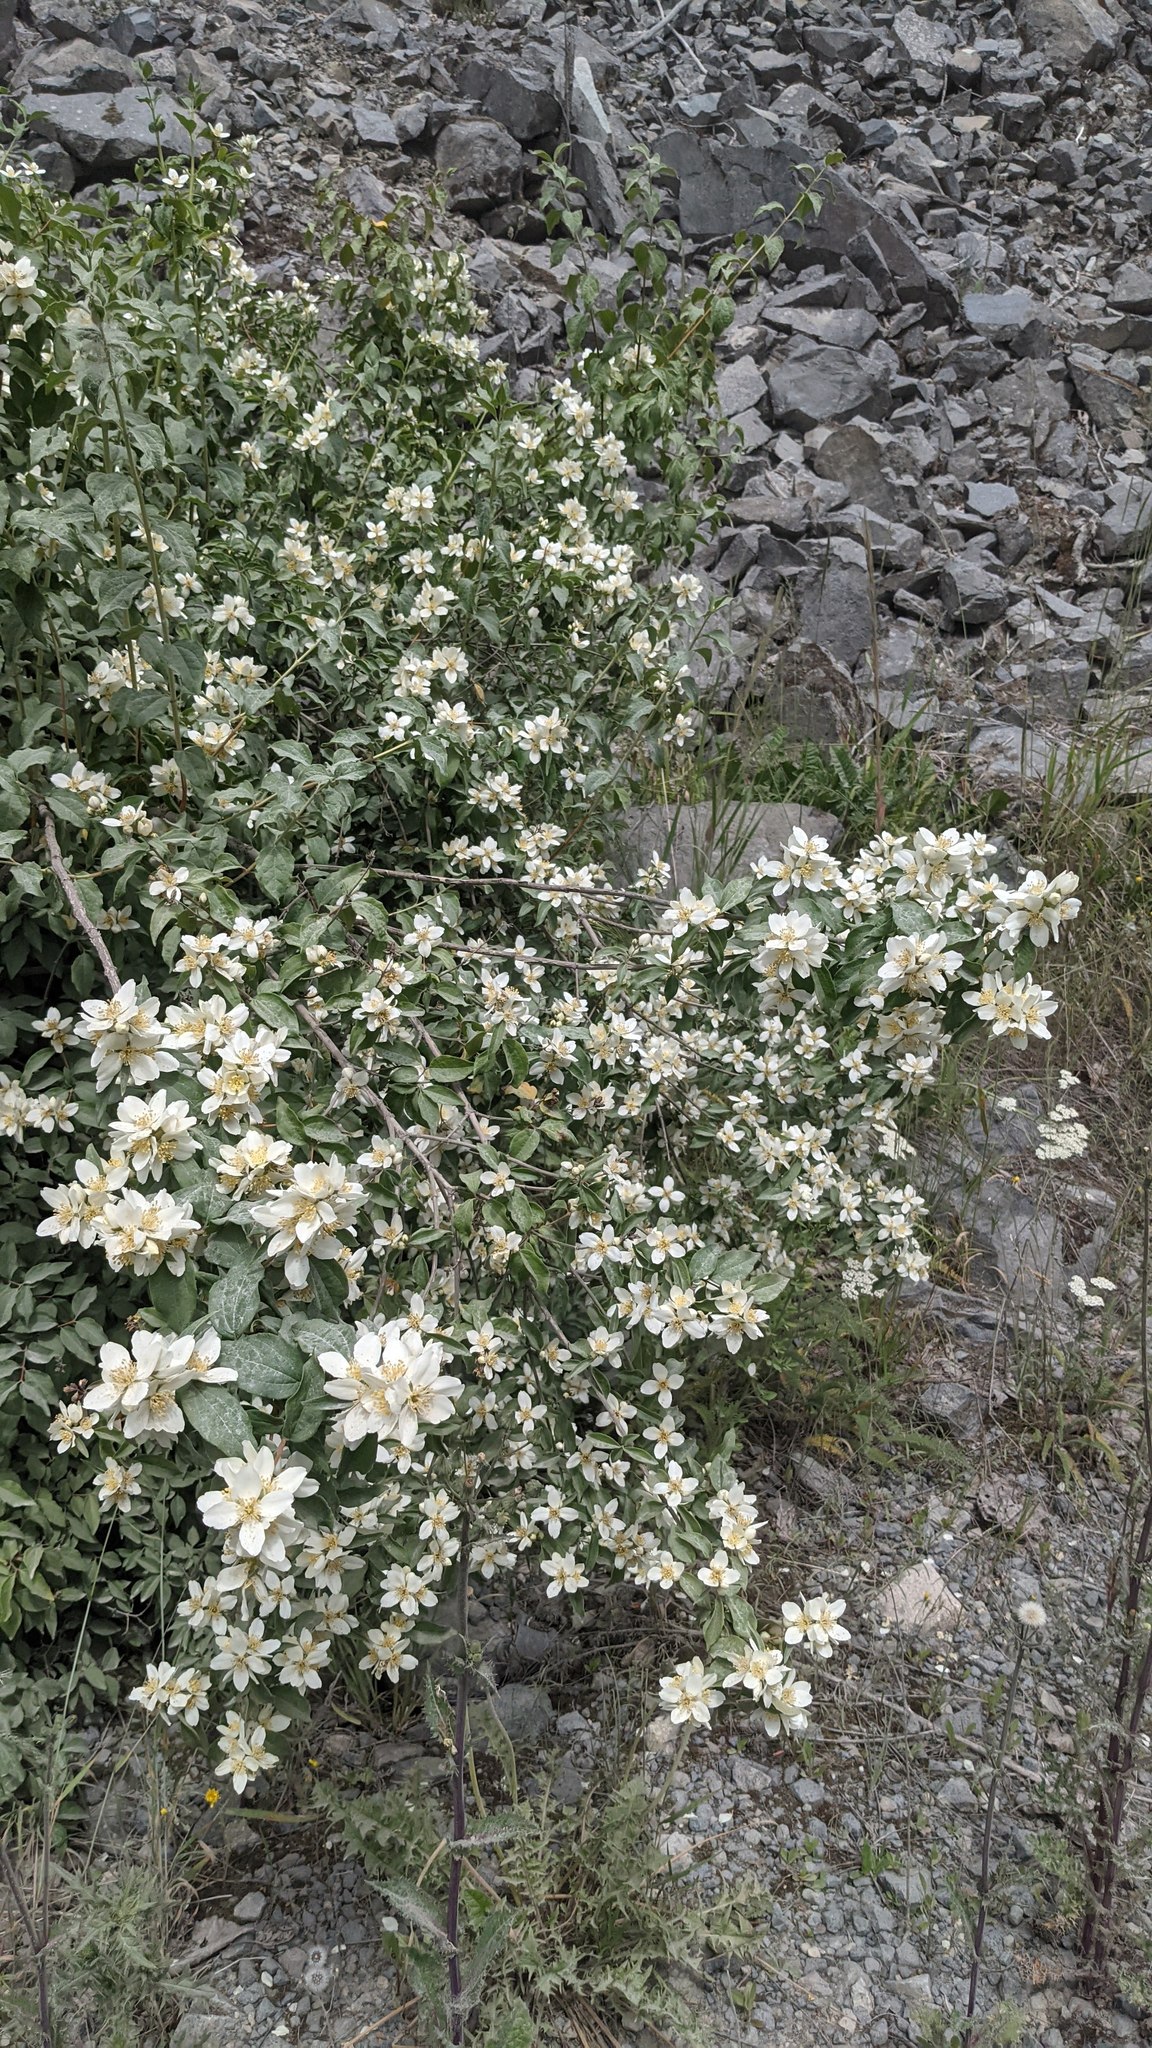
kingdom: Plantae
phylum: Tracheophyta
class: Magnoliopsida
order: Cornales
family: Hydrangeaceae
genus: Philadelphus
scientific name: Philadelphus lewisii
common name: Lewis's mock orange
